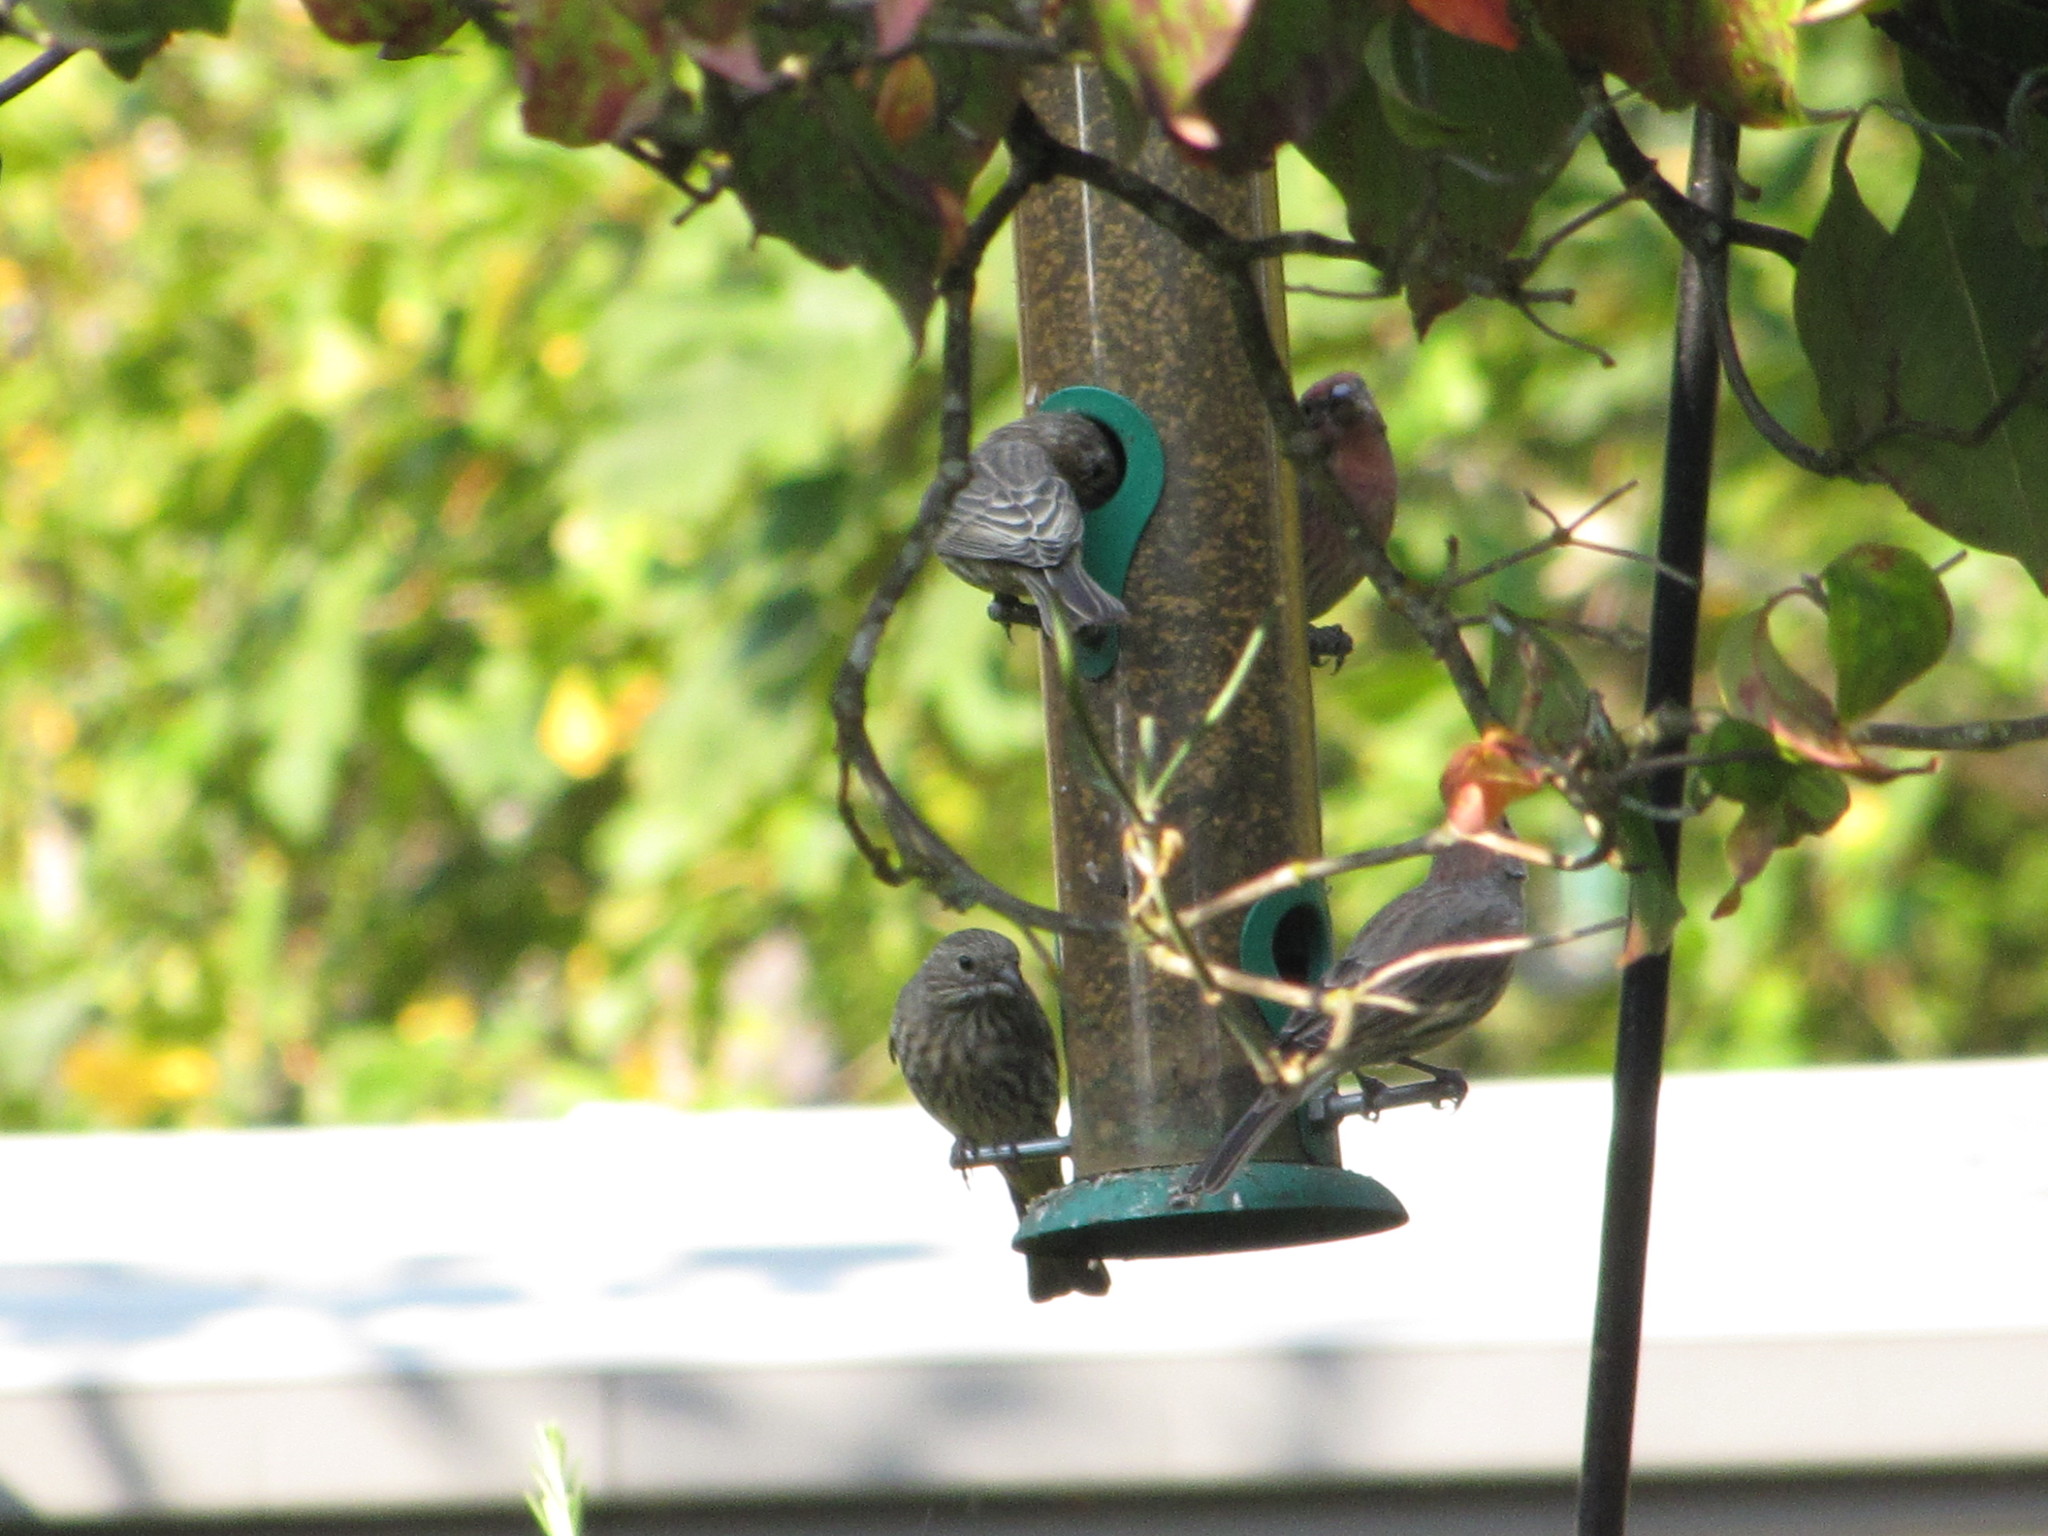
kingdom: Animalia
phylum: Chordata
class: Aves
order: Passeriformes
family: Fringillidae
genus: Haemorhous
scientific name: Haemorhous mexicanus
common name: House finch
